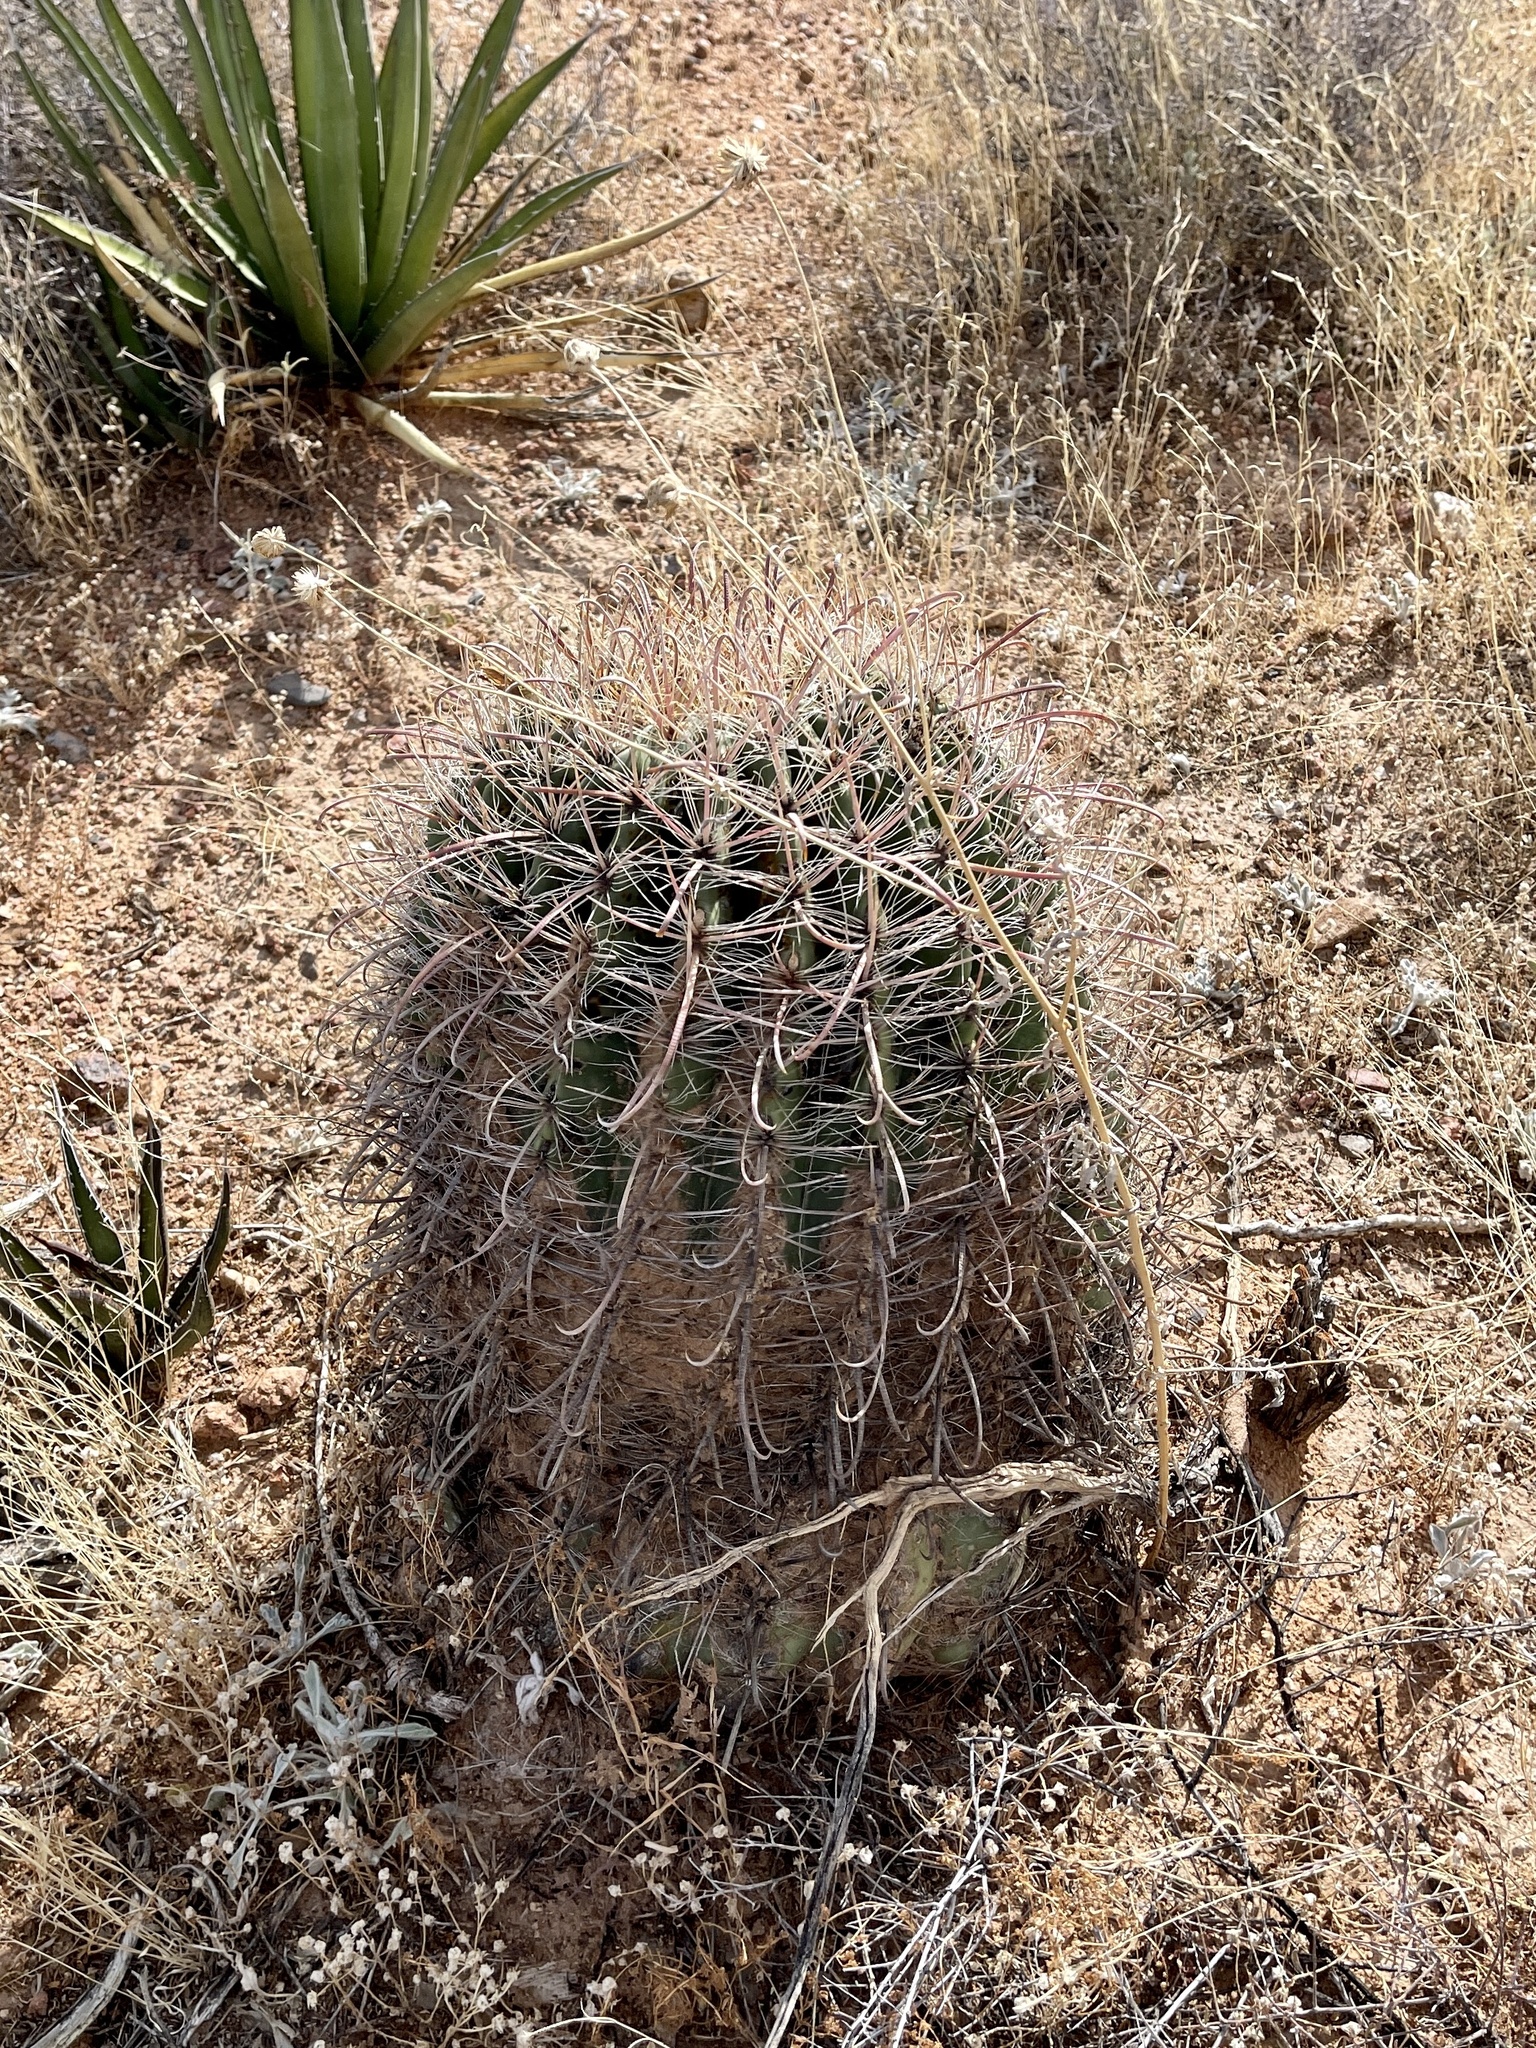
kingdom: Plantae
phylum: Tracheophyta
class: Magnoliopsida
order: Caryophyllales
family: Cactaceae
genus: Ferocactus
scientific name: Ferocactus wislizeni
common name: Candy barrel cactus
